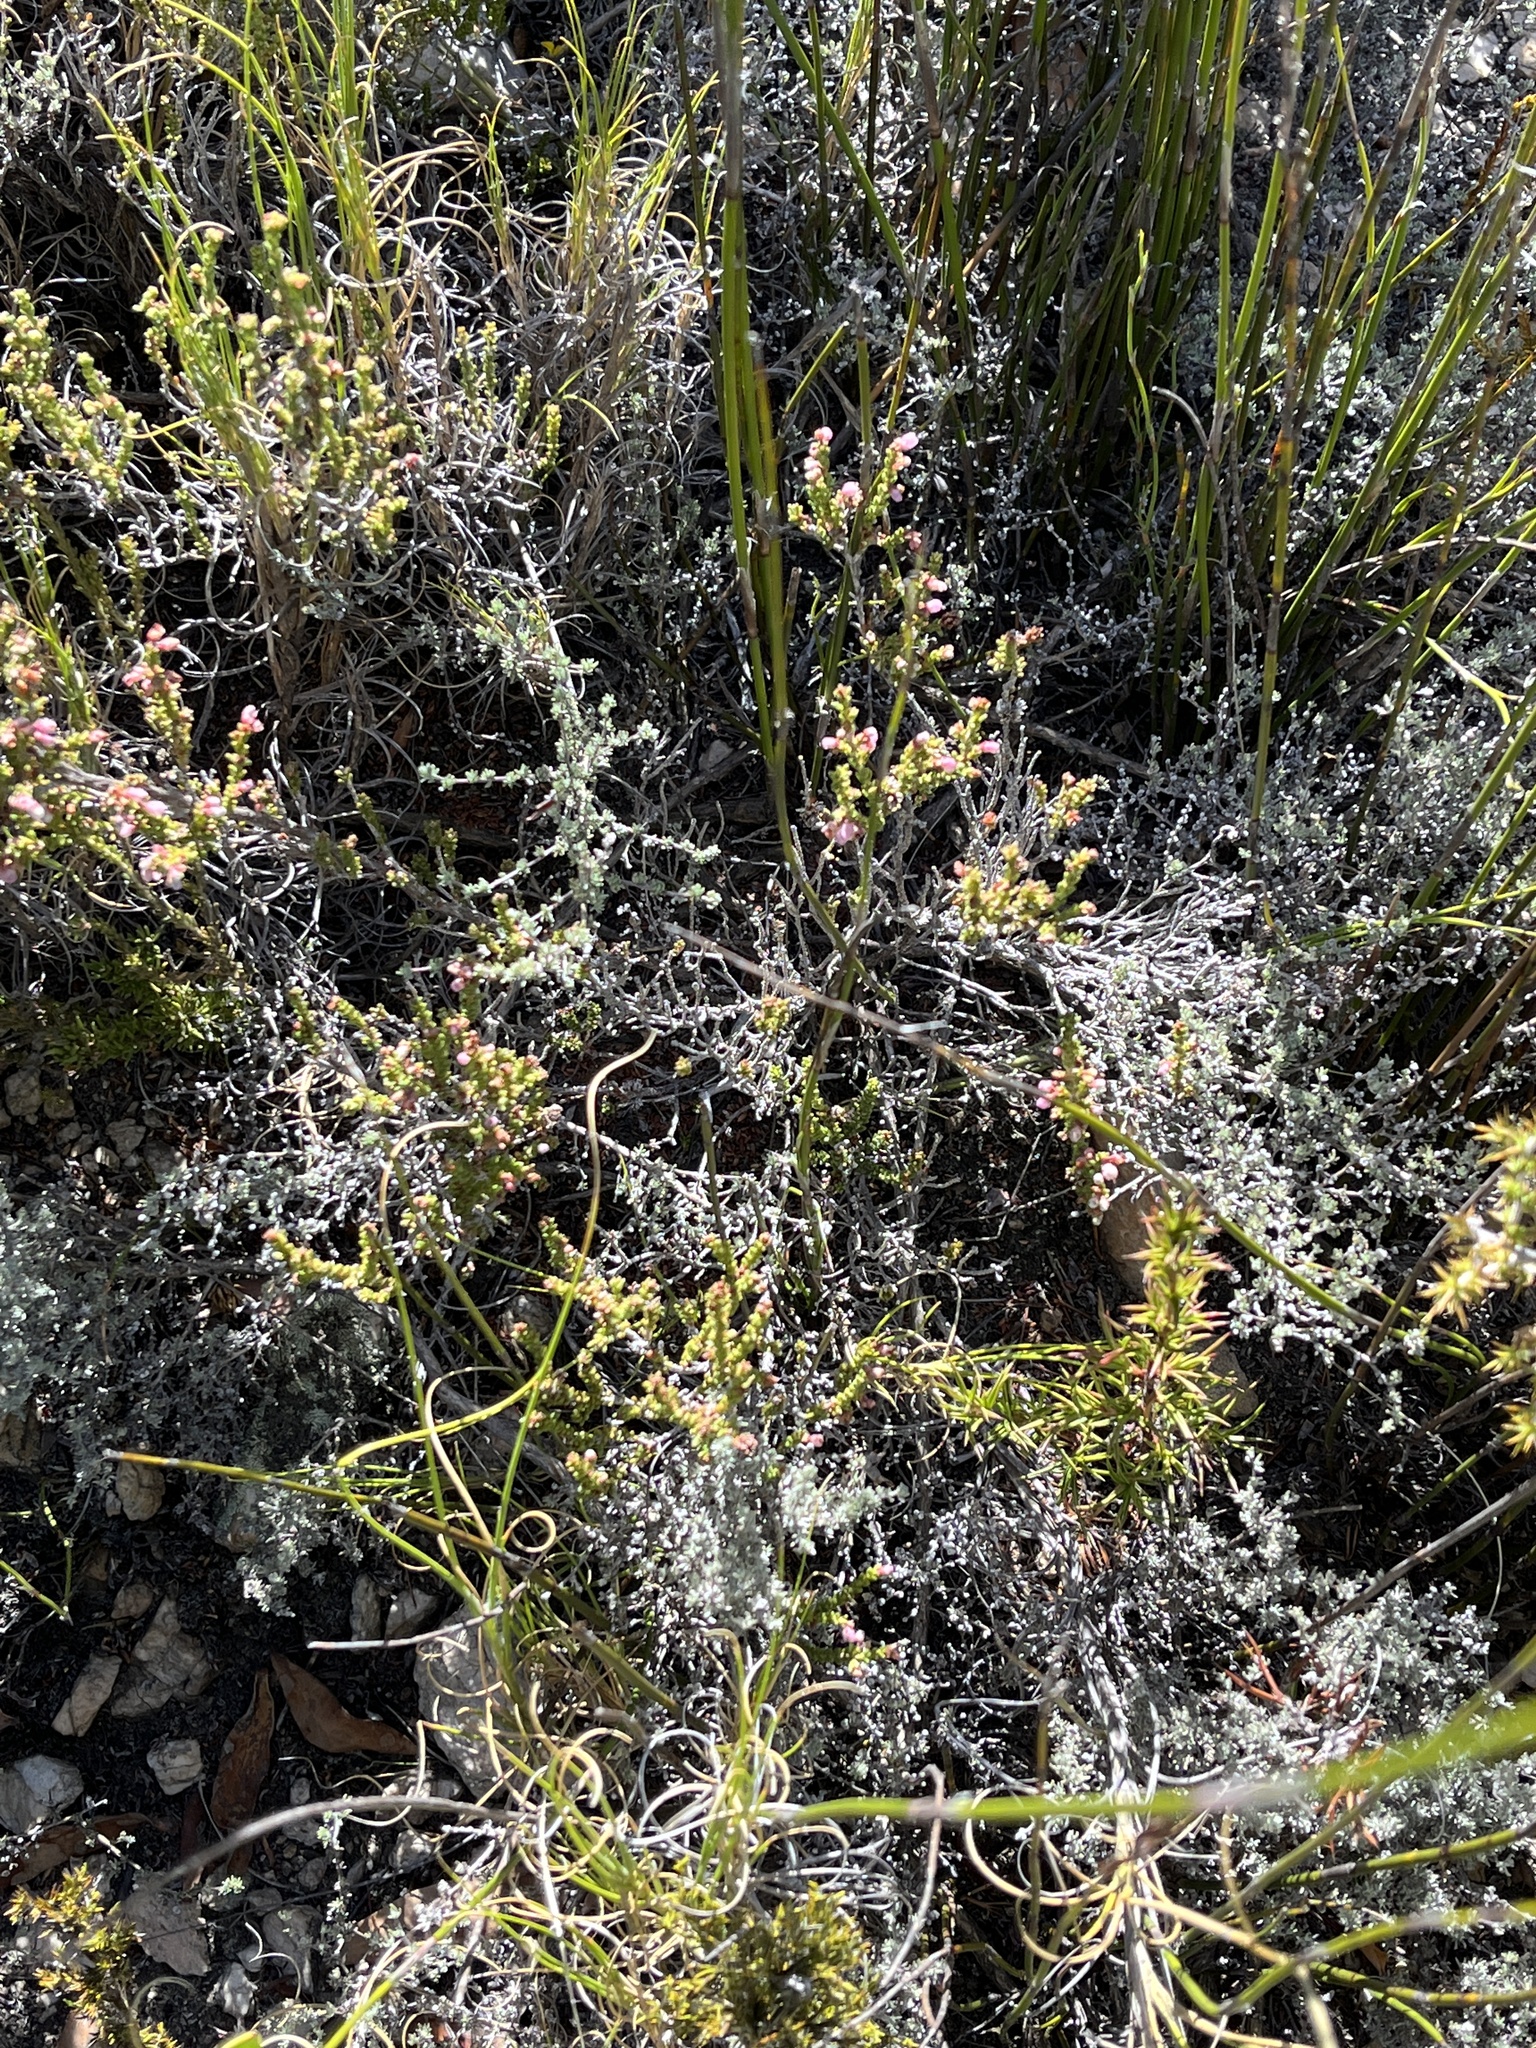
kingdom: Plantae
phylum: Tracheophyta
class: Magnoliopsida
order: Ericales
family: Ericaceae
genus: Erica
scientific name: Erica umbelliflora
